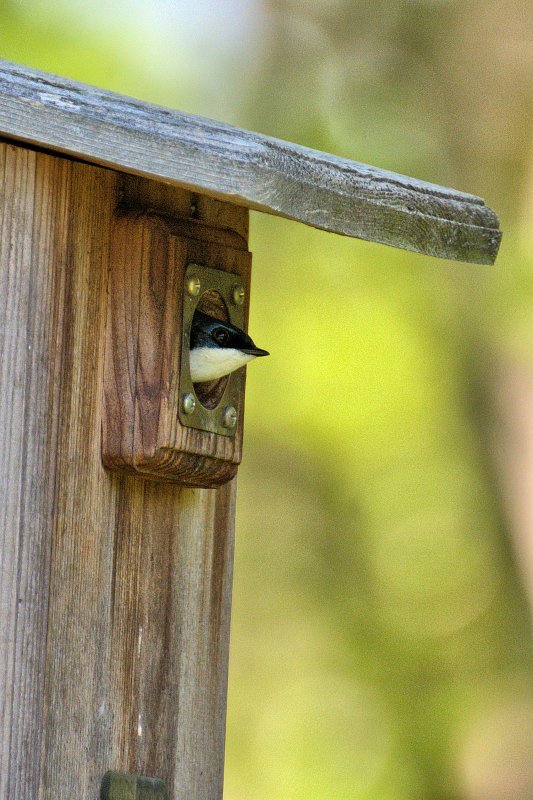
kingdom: Animalia
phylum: Chordata
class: Aves
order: Passeriformes
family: Hirundinidae
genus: Tachycineta
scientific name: Tachycineta bicolor
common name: Tree swallow
